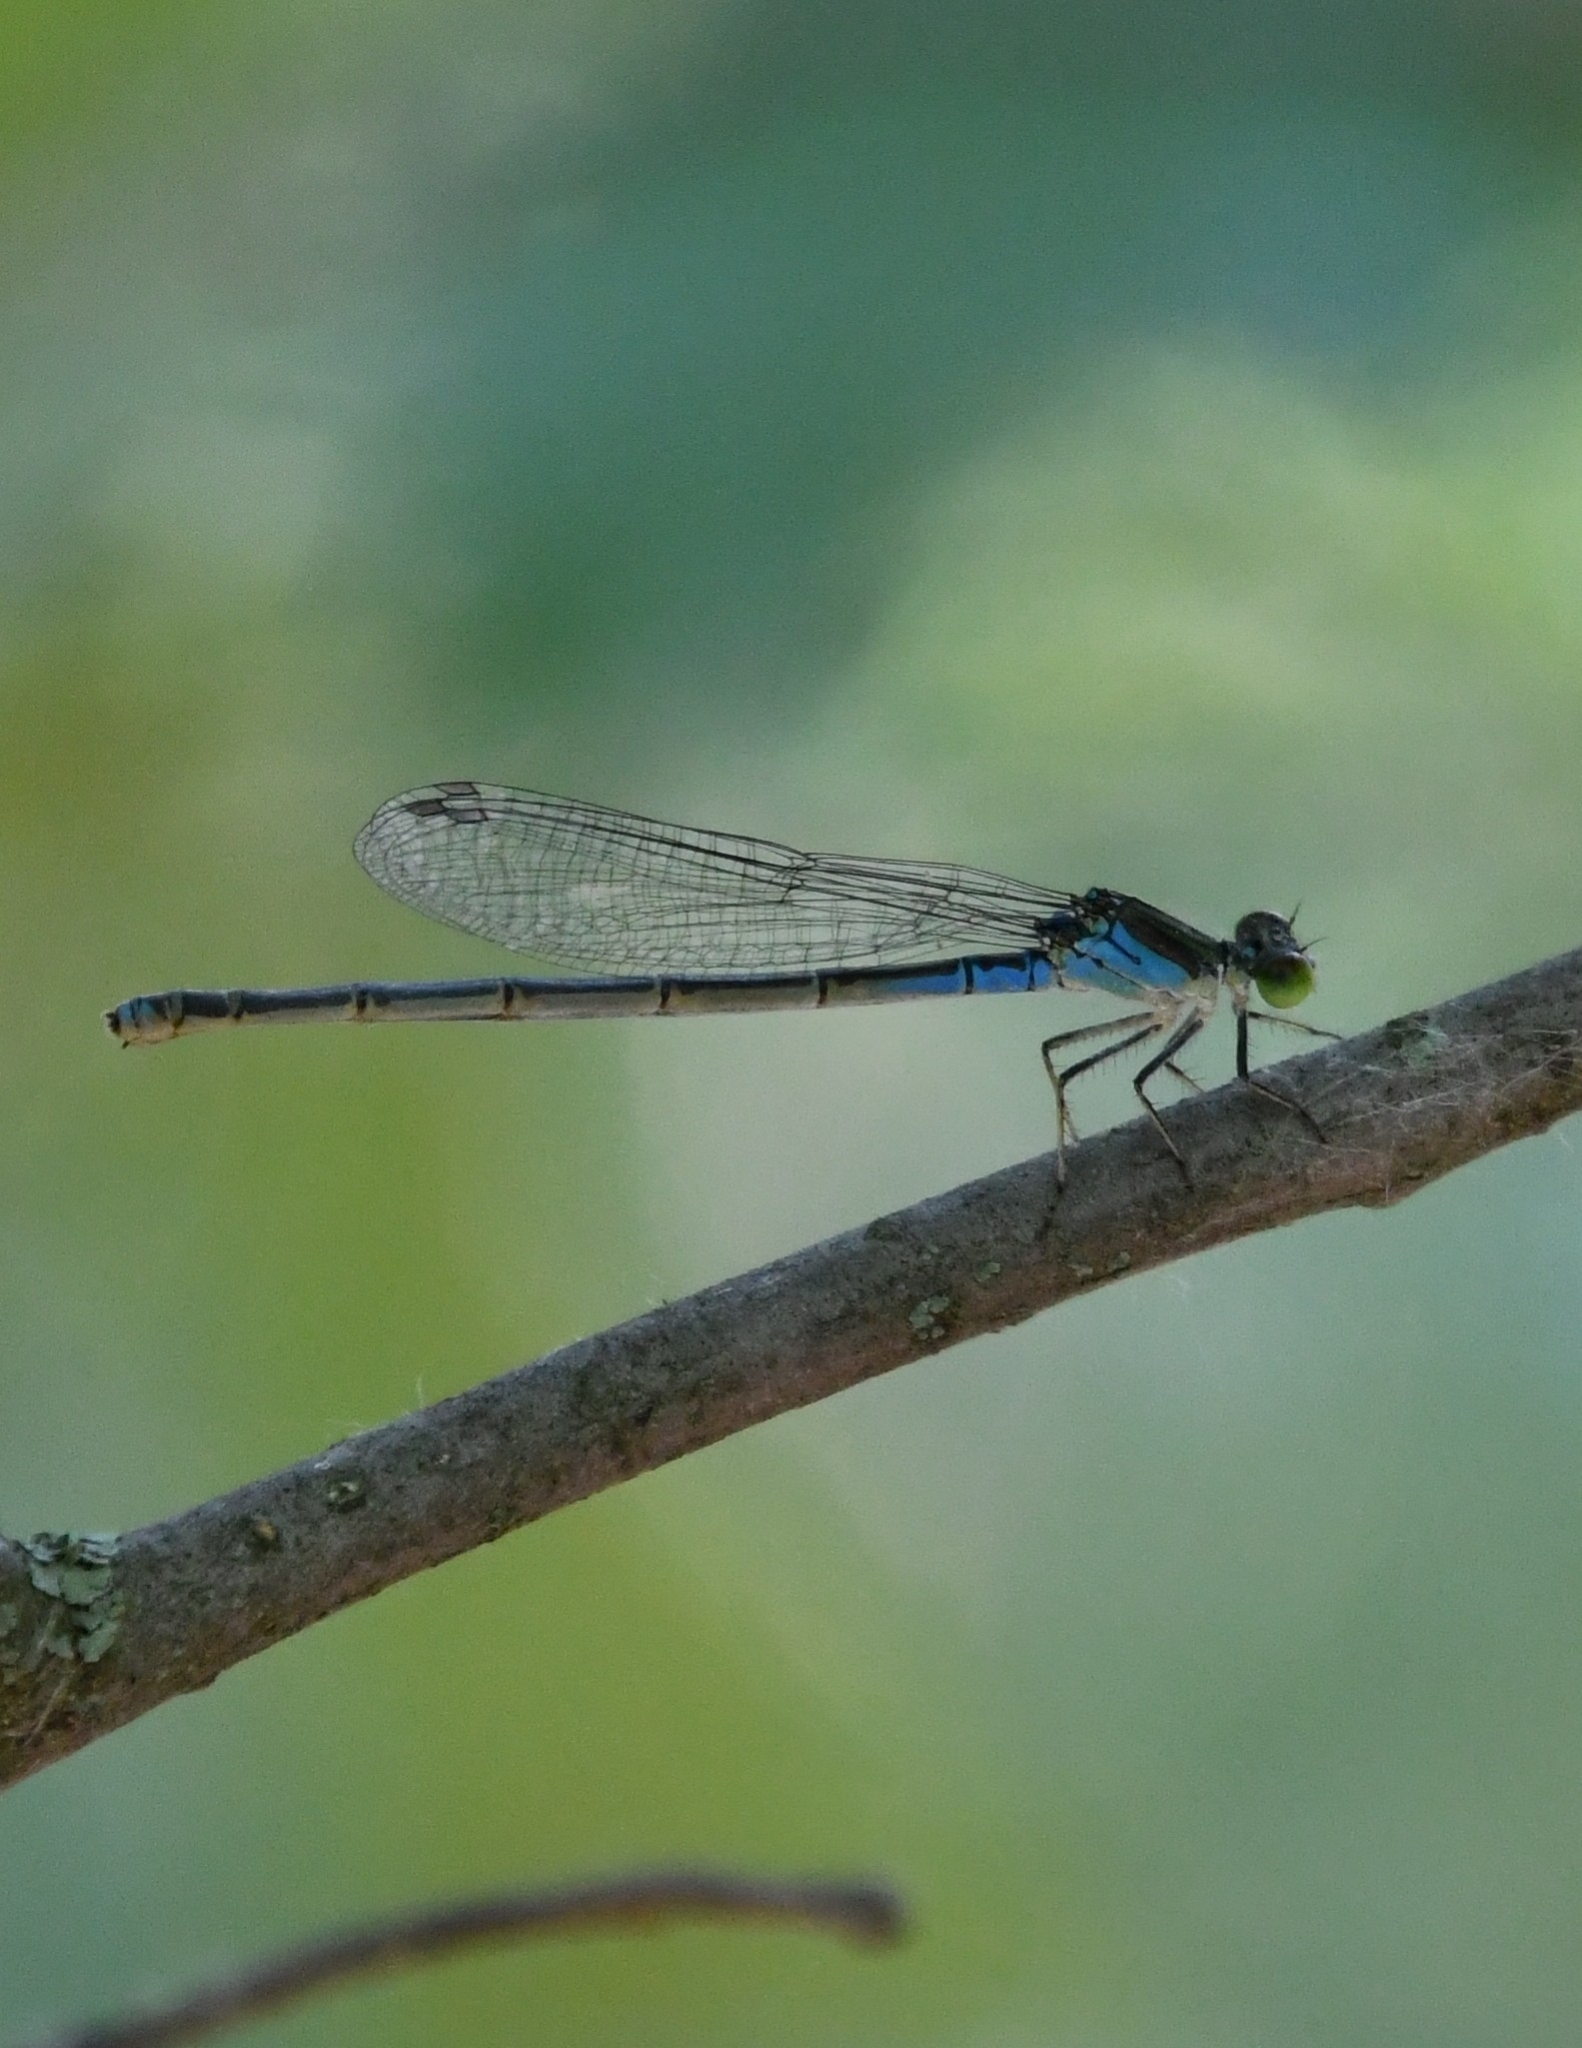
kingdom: Animalia
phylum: Arthropoda
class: Insecta
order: Odonata
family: Coenagrionidae
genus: Erythromma
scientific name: Erythromma viridulum
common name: Small red-eyed damselfly
